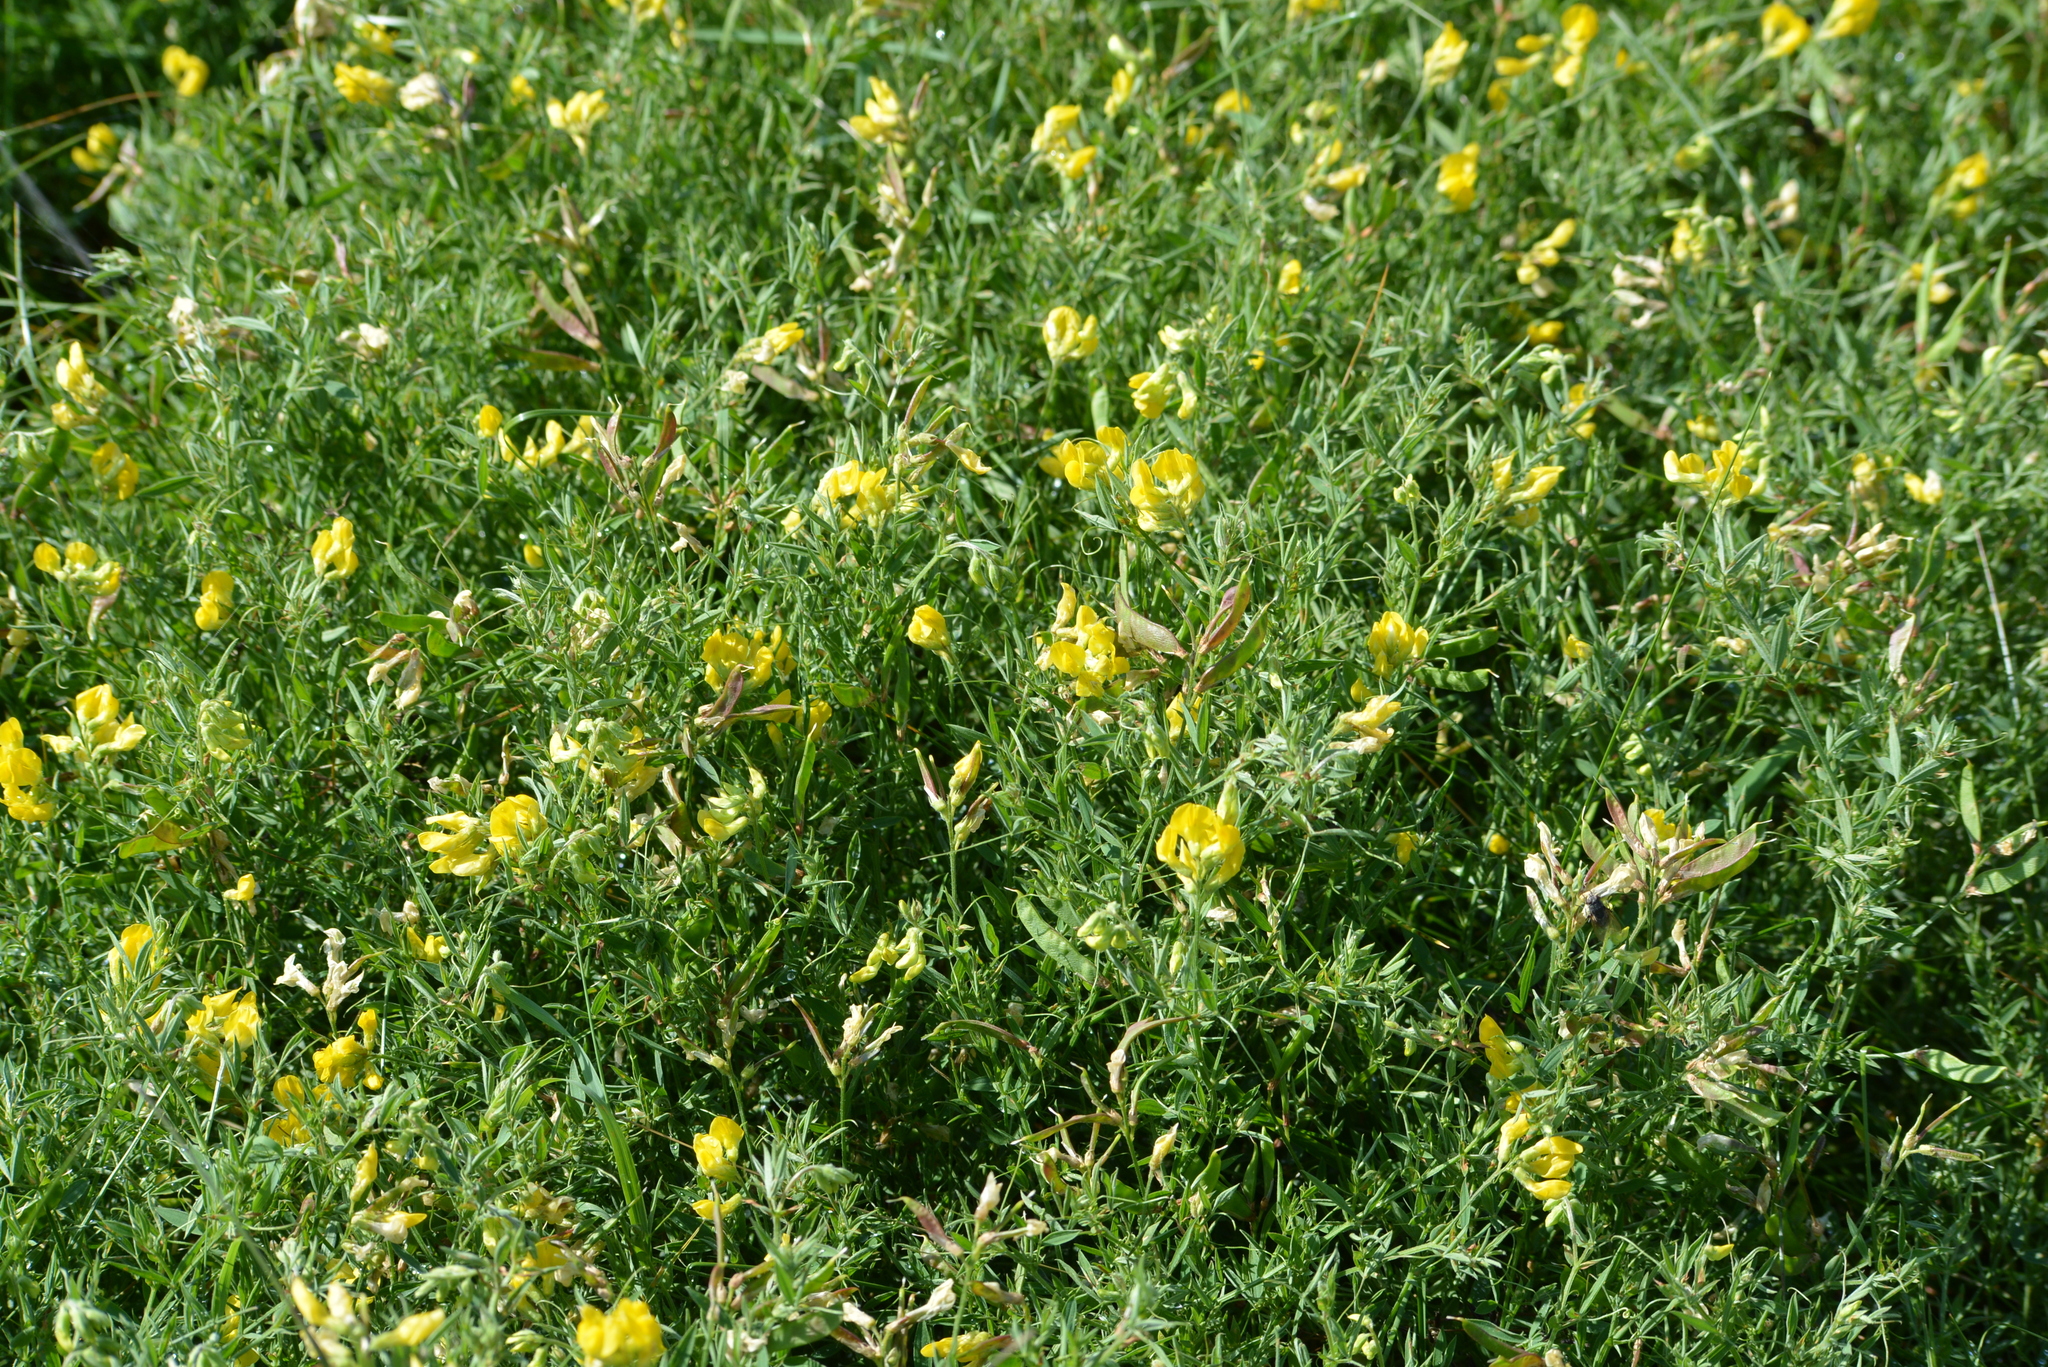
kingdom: Plantae
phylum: Tracheophyta
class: Magnoliopsida
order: Fabales
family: Fabaceae
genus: Lathyrus
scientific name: Lathyrus pratensis
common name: Meadow vetchling
